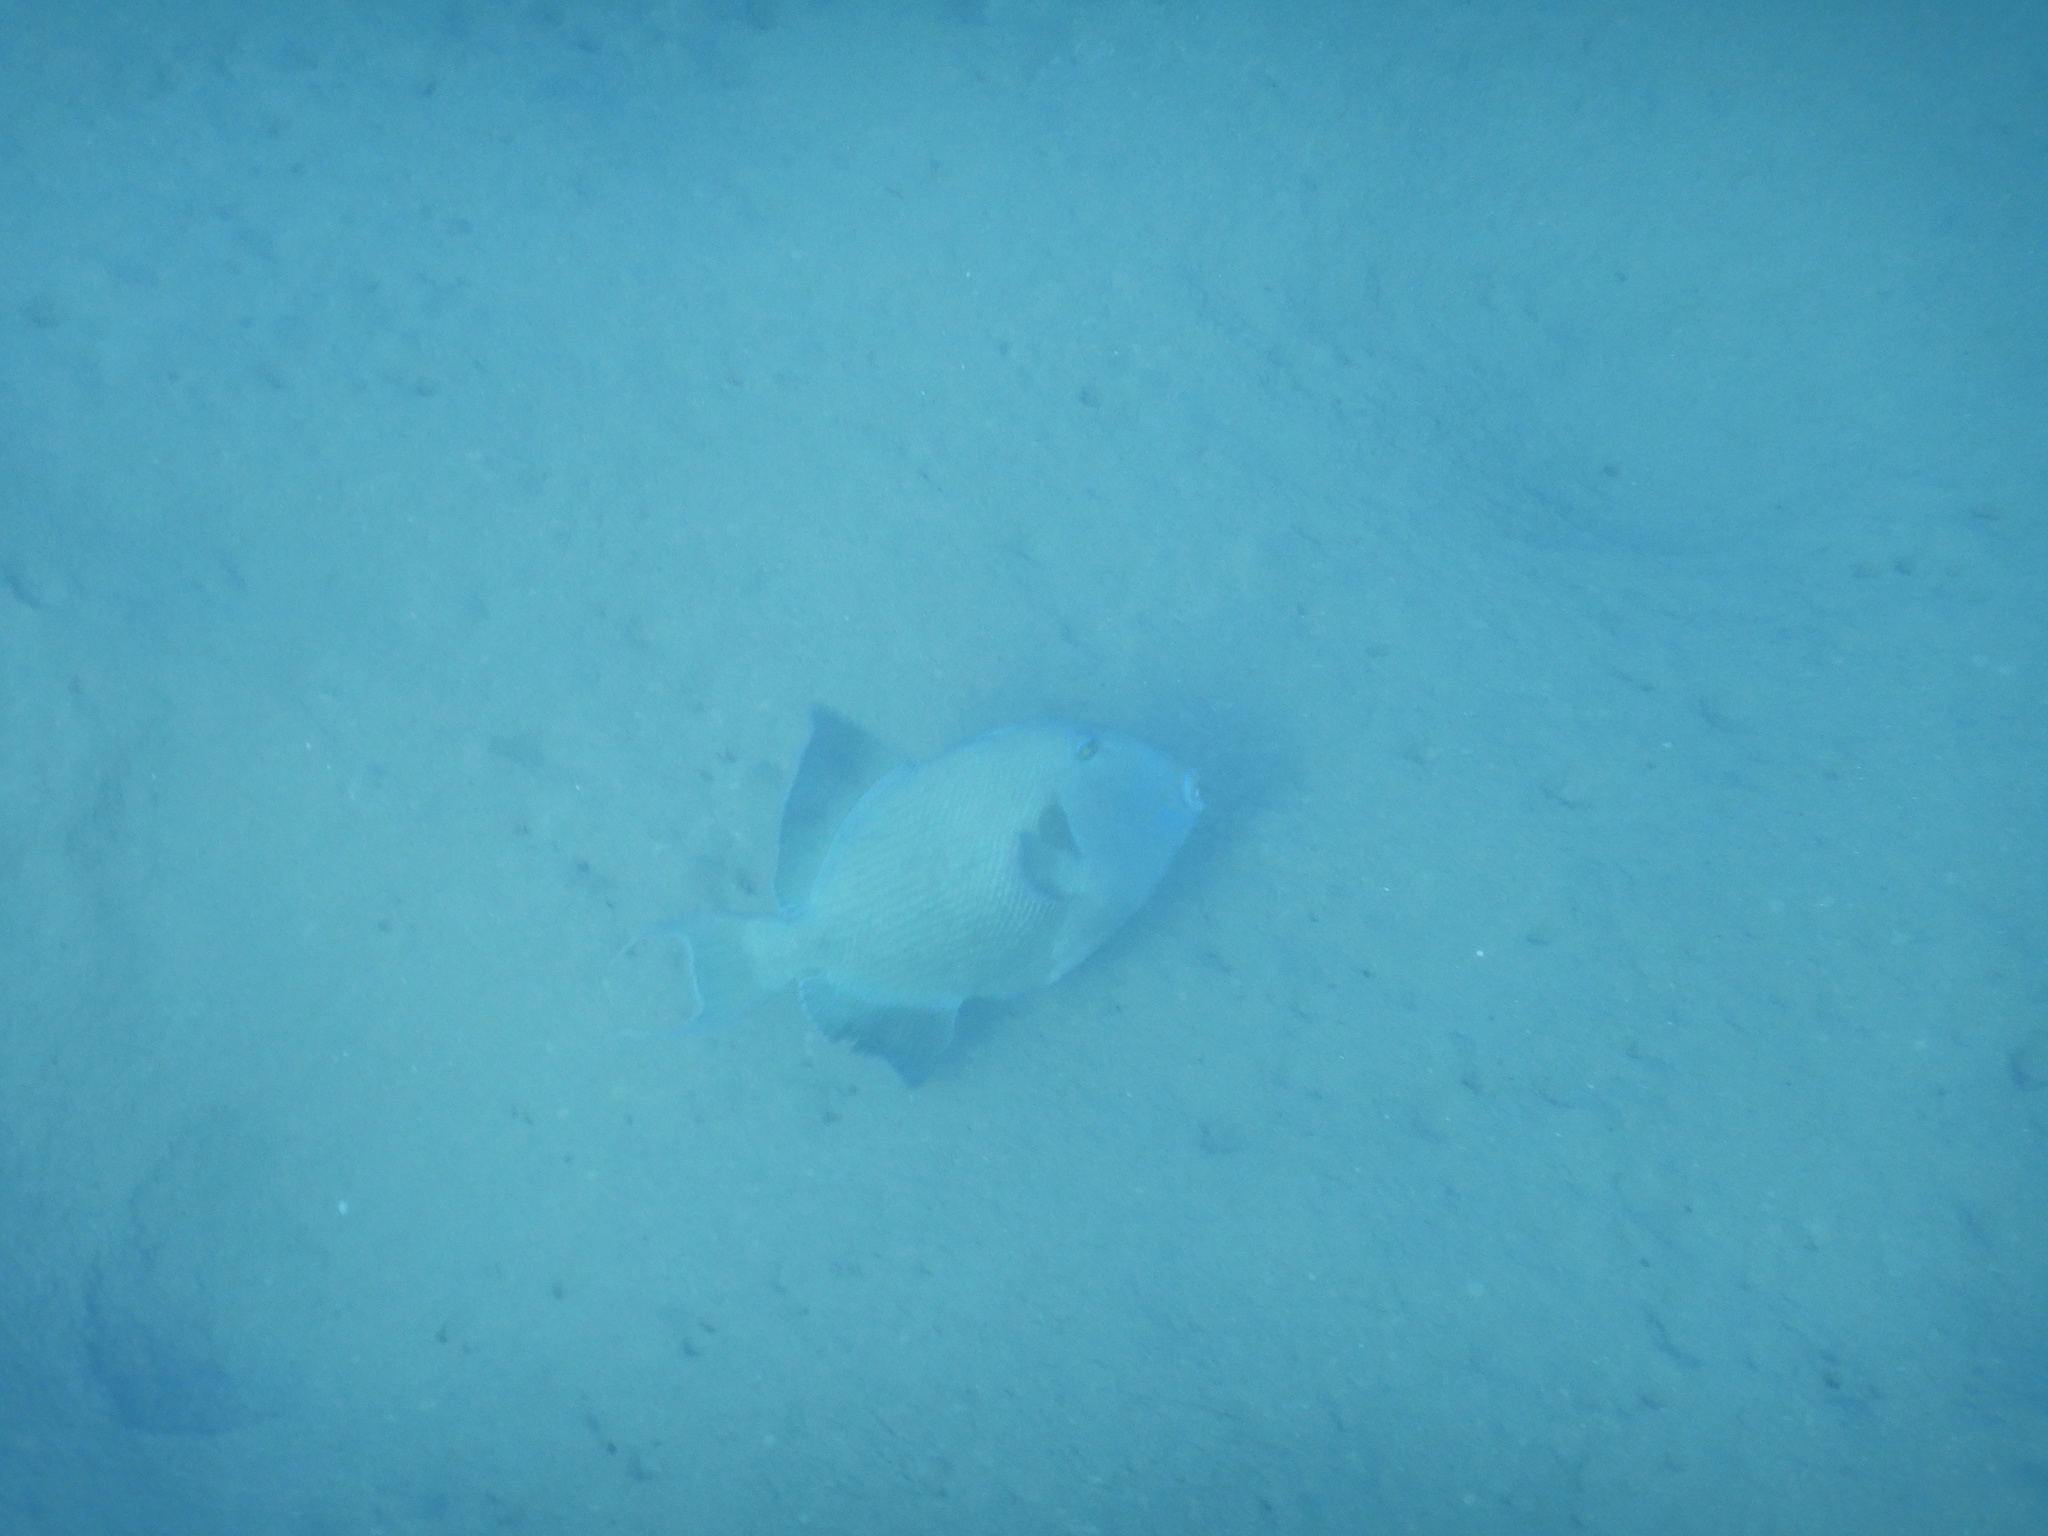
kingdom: Animalia
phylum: Chordata
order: Tetraodontiformes
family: Balistidae
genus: Pseudobalistes
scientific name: Pseudobalistes fuscus
